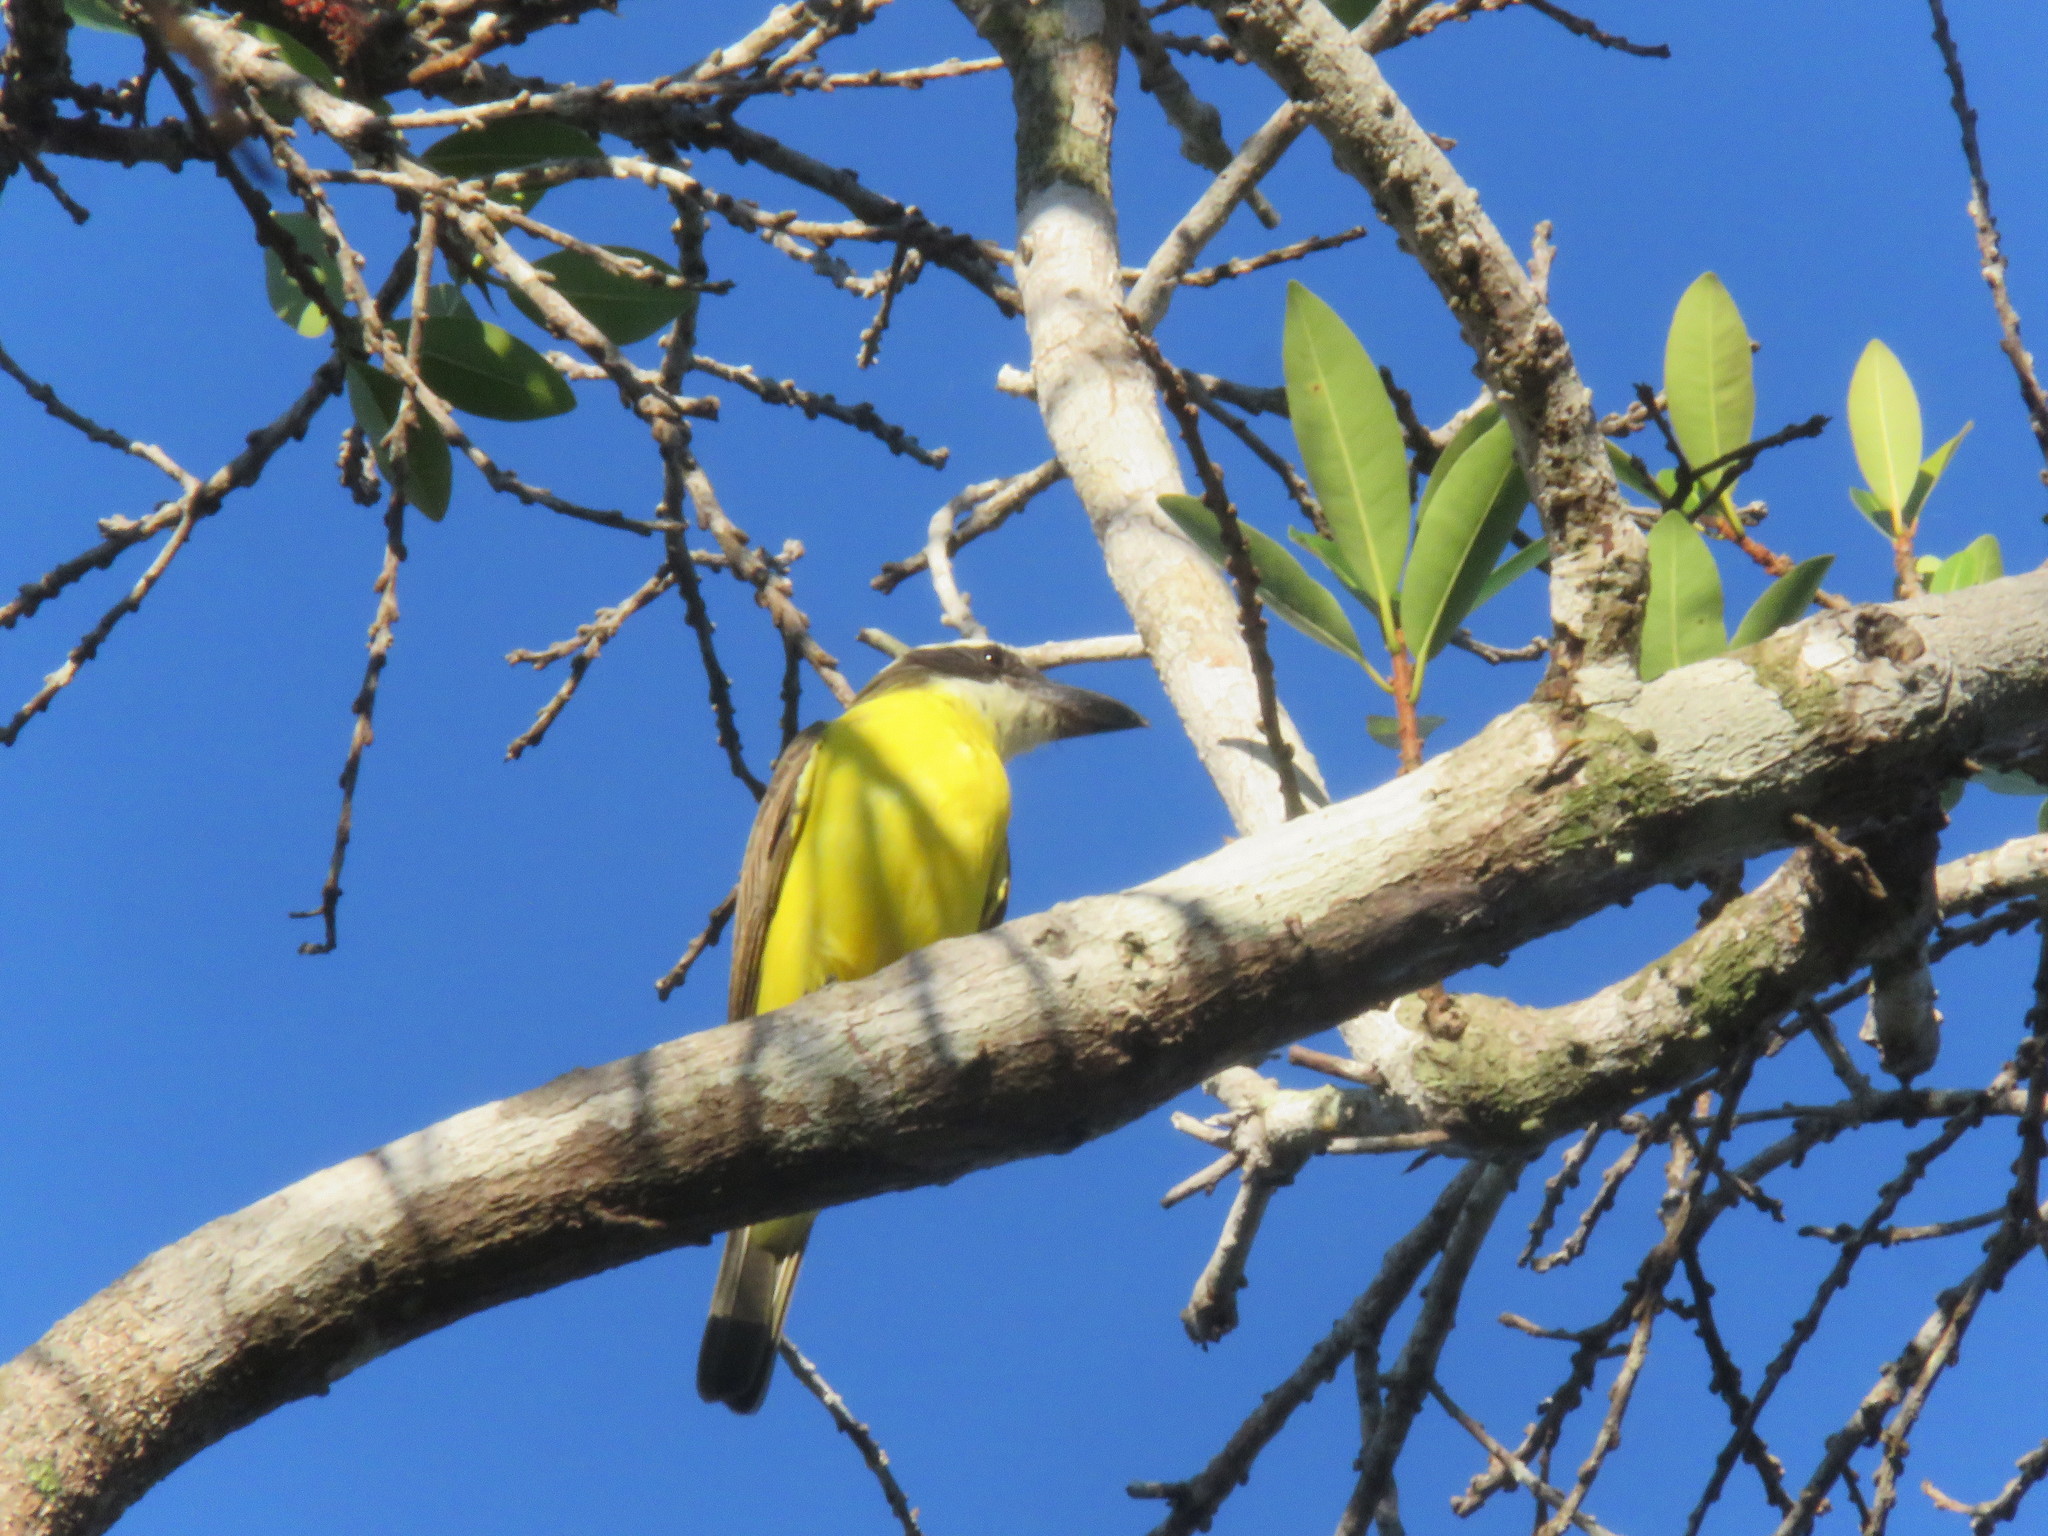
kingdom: Animalia
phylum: Chordata
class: Aves
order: Passeriformes
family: Tyrannidae
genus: Megarynchus
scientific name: Megarynchus pitangua
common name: Boat-billed flycatcher
